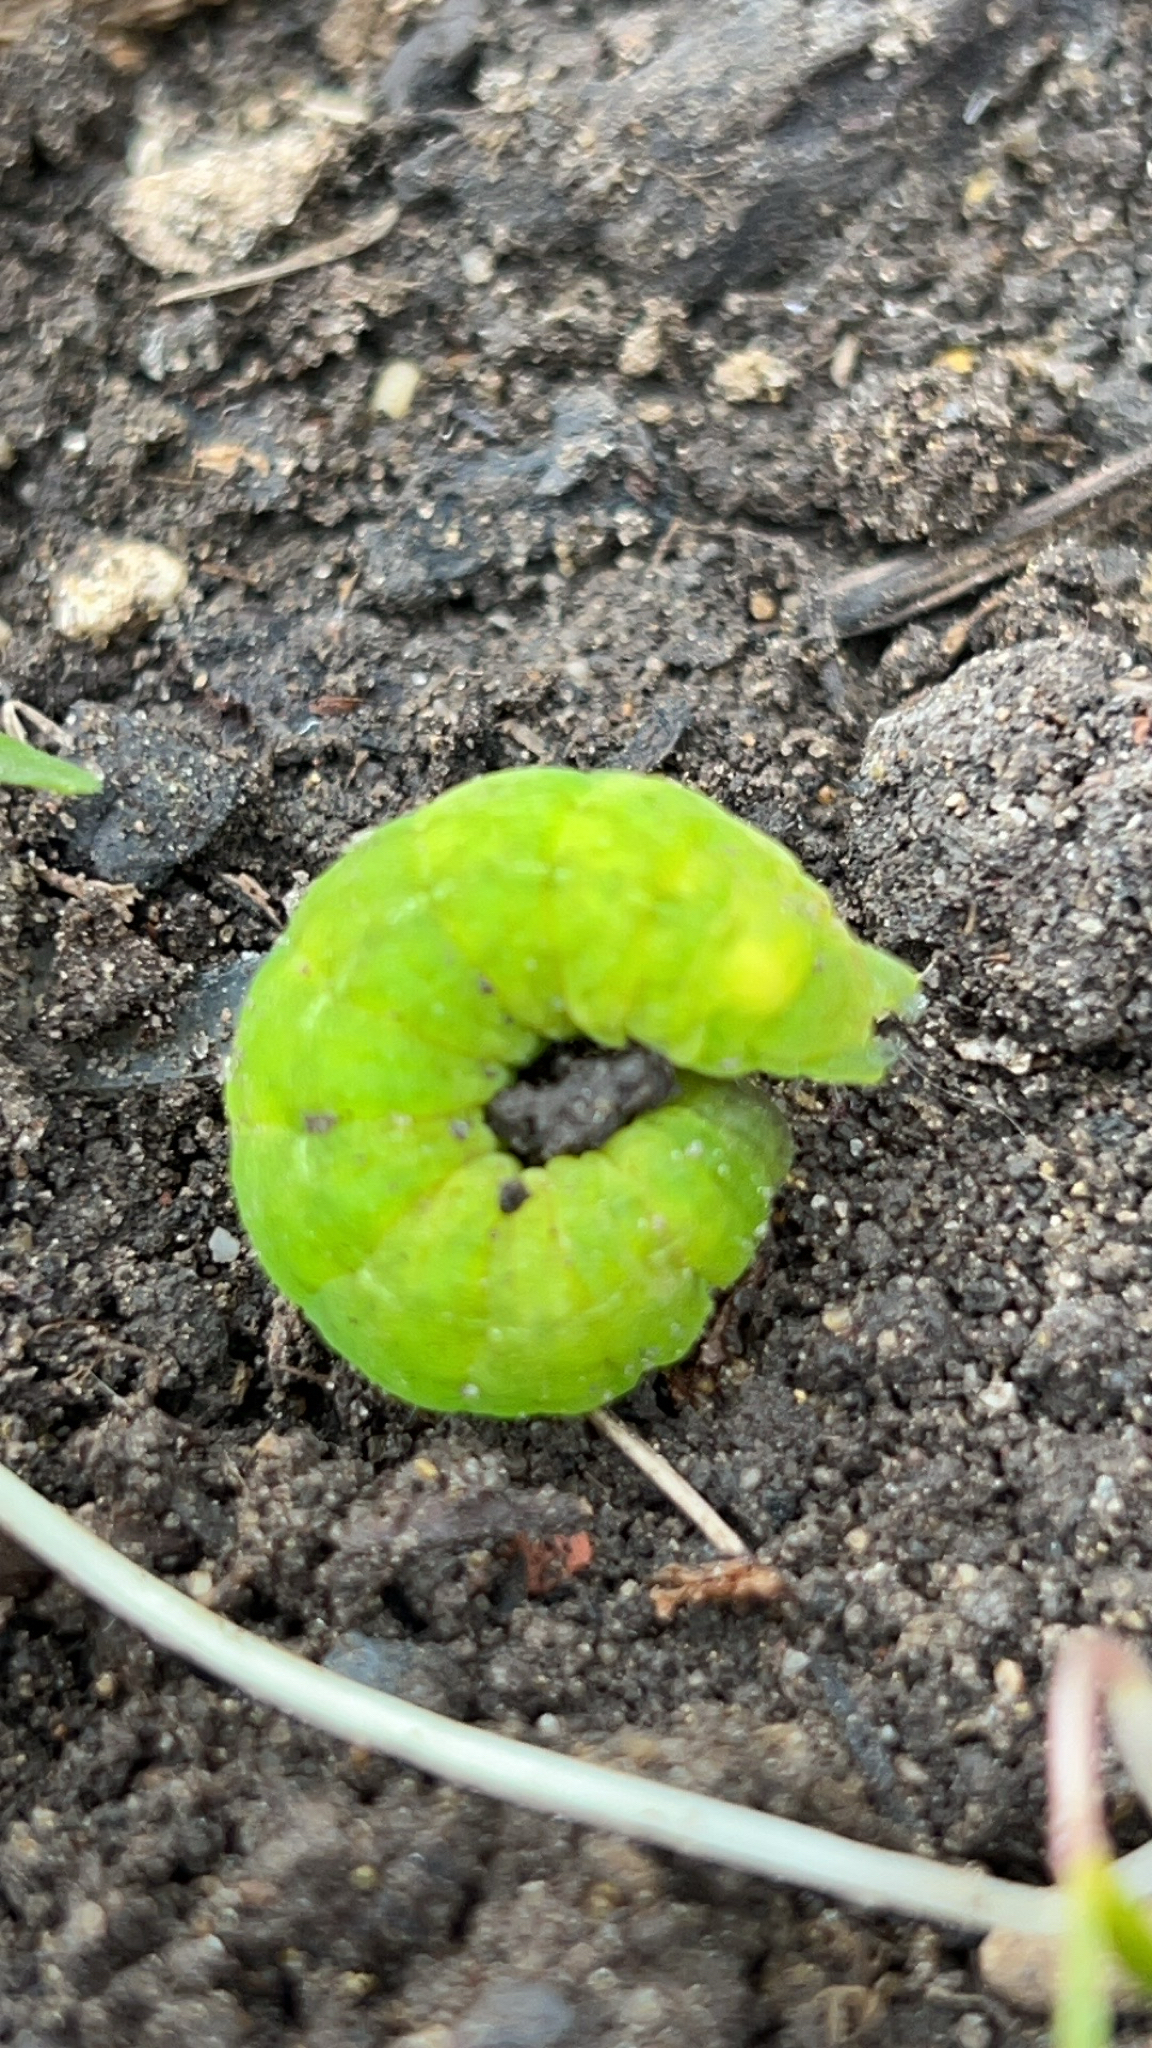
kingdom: Animalia
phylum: Arthropoda
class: Insecta
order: Lepidoptera
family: Noctuidae
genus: Phlogophora
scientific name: Phlogophora meticulosa
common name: Angle shades
